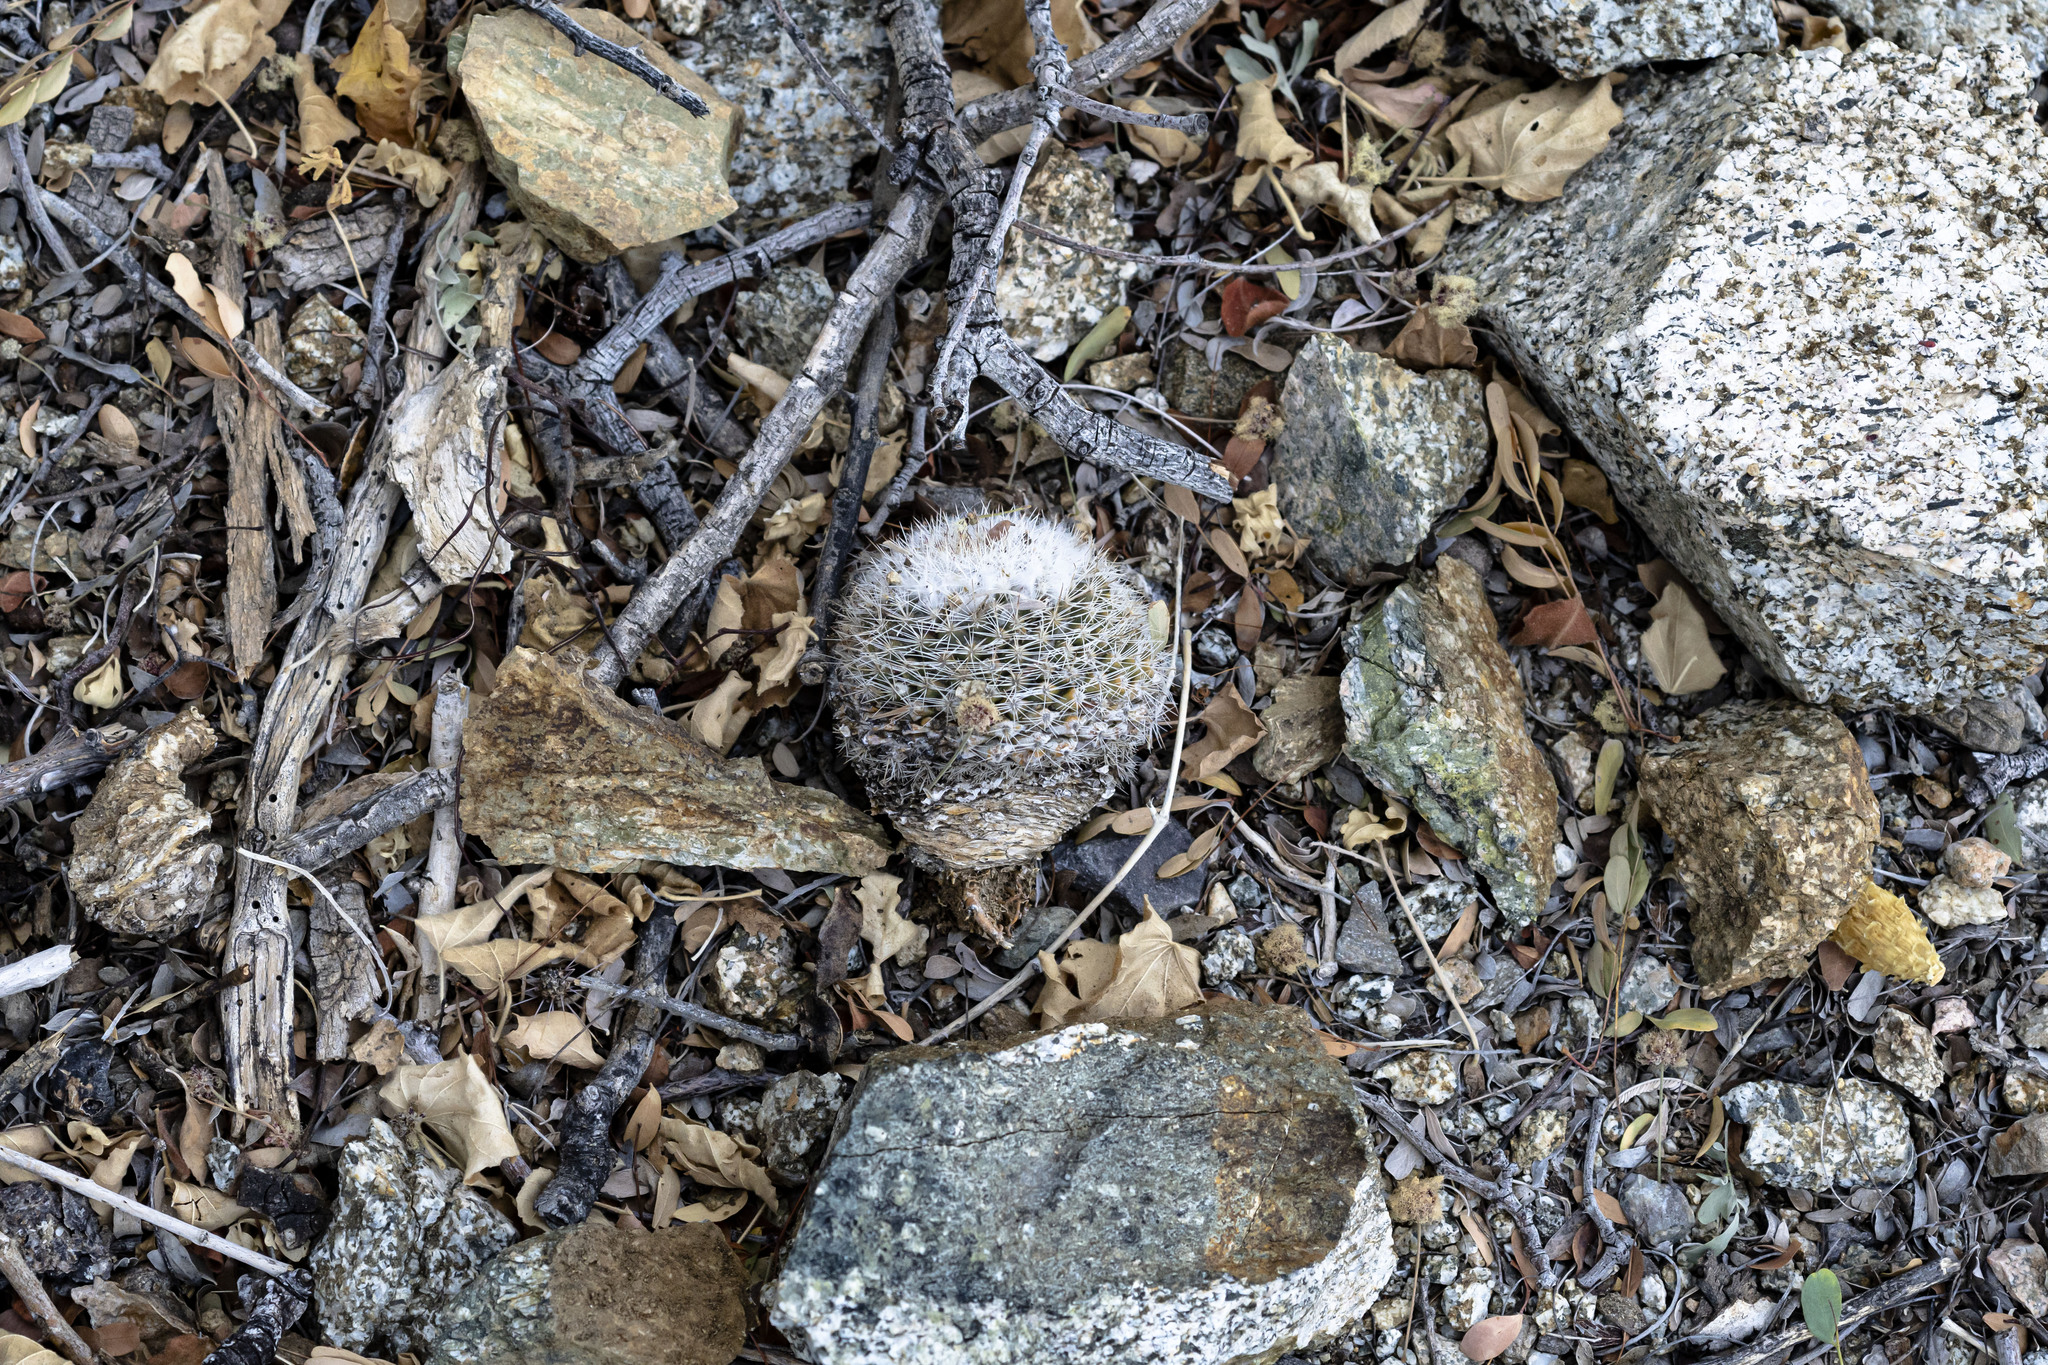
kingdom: Plantae
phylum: Tracheophyta
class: Magnoliopsida
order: Caryophyllales
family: Cactaceae
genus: Mammillaria
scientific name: Mammillaria evermanniana
